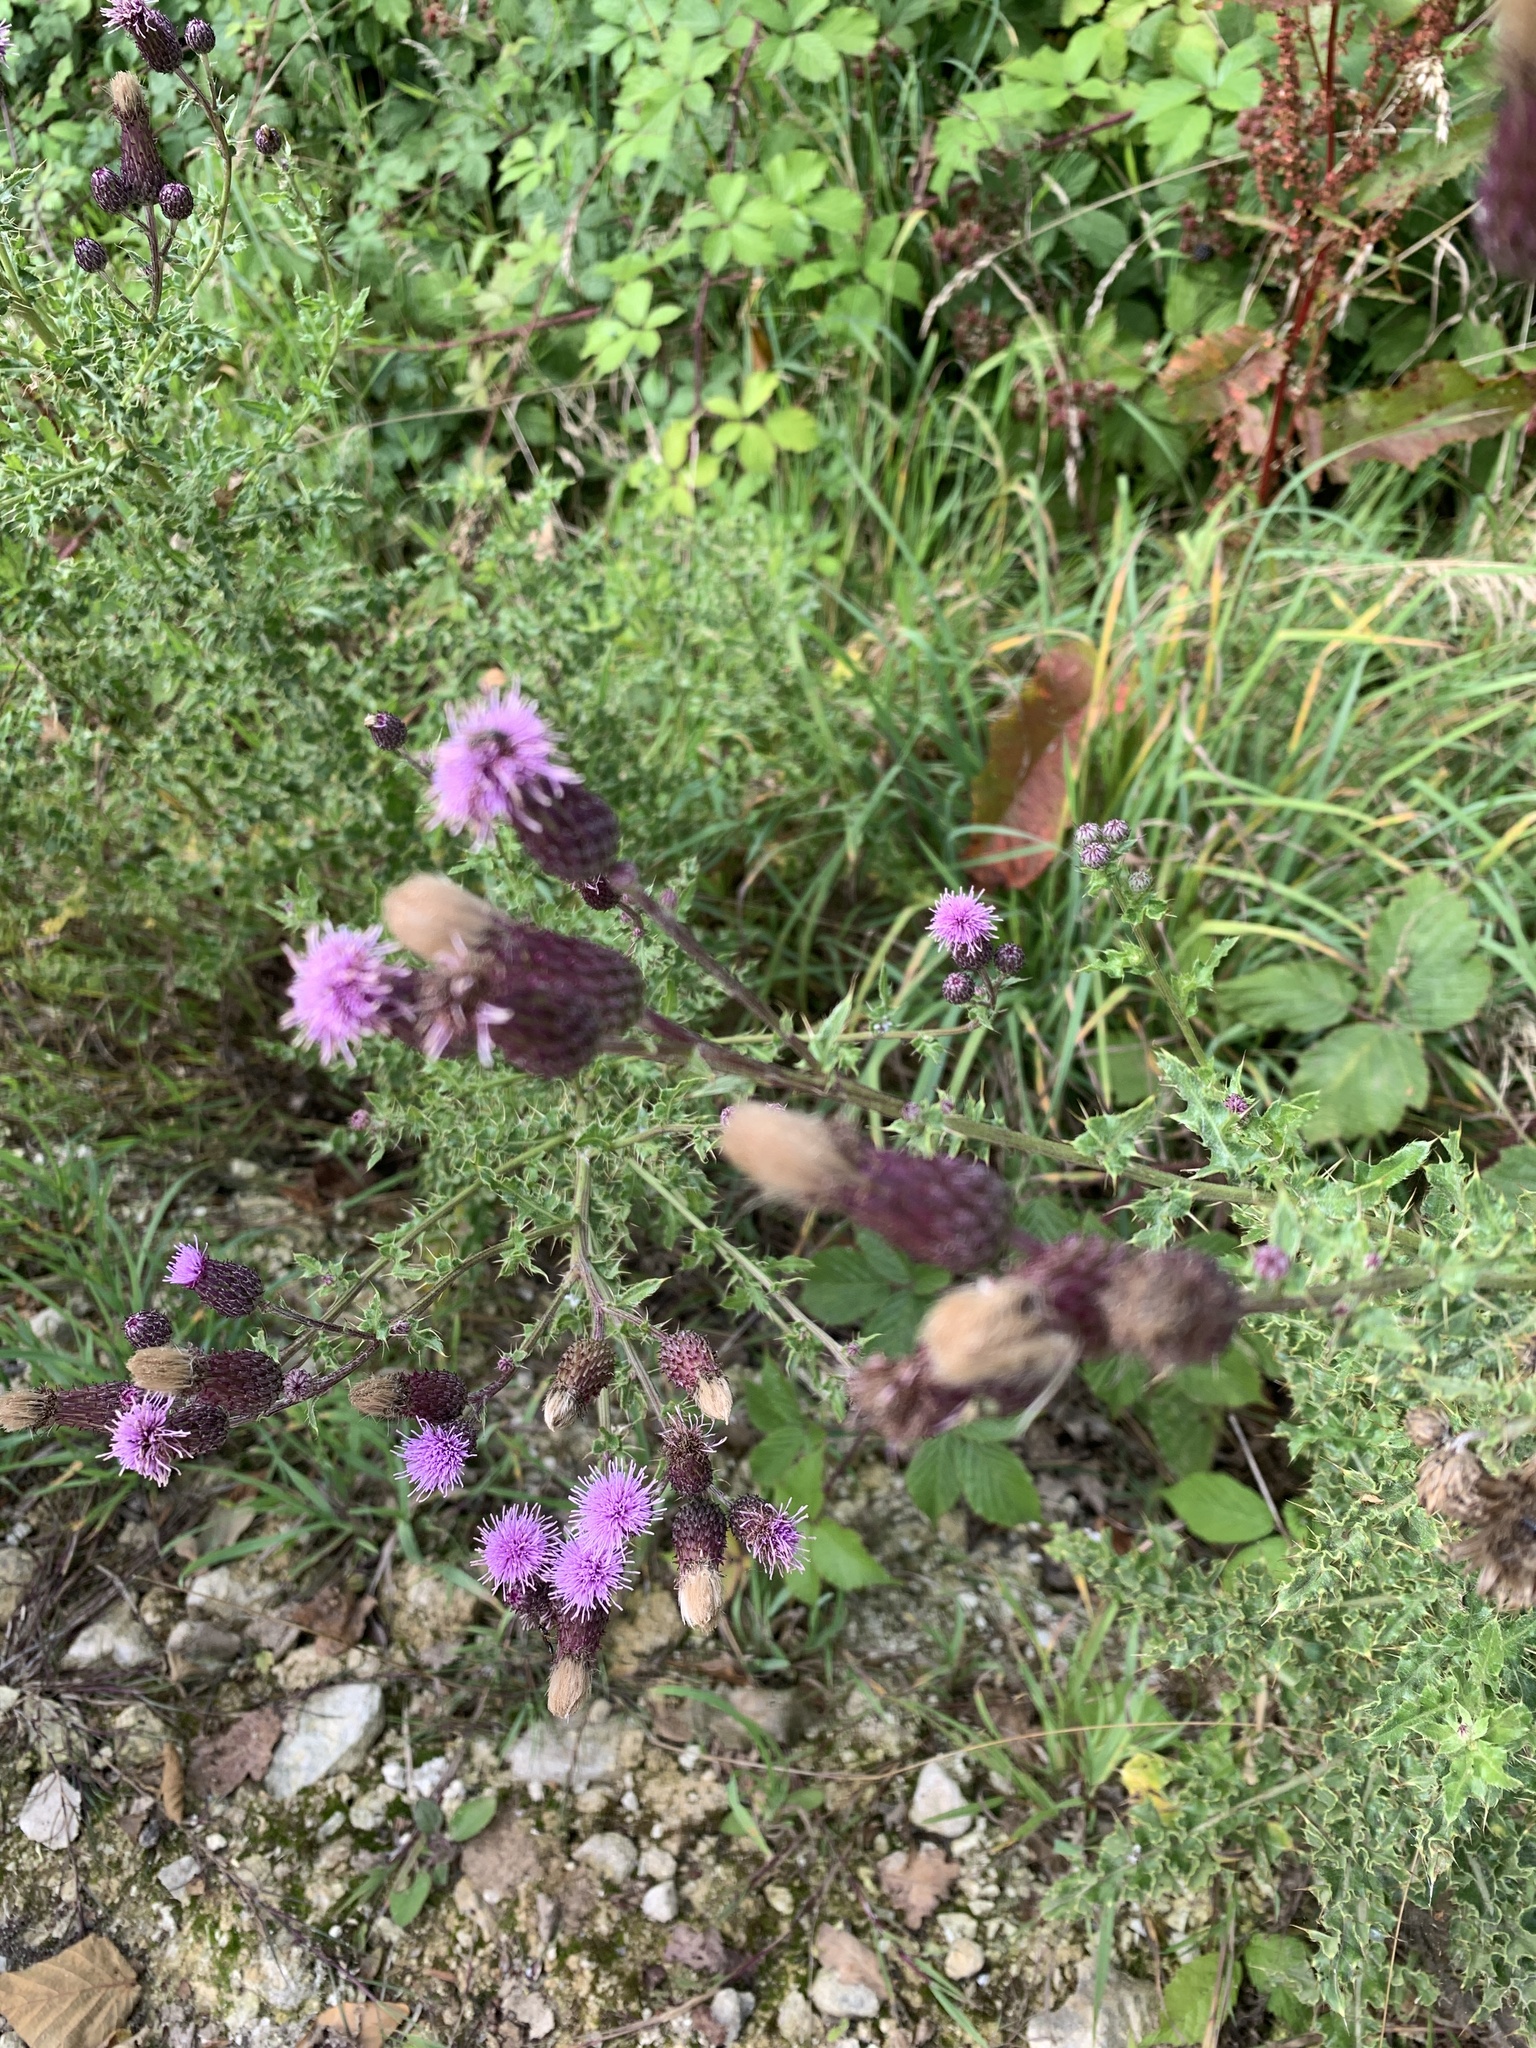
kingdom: Plantae
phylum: Tracheophyta
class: Magnoliopsida
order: Asterales
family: Asteraceae
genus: Cirsium
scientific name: Cirsium arvense
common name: Creeping thistle
